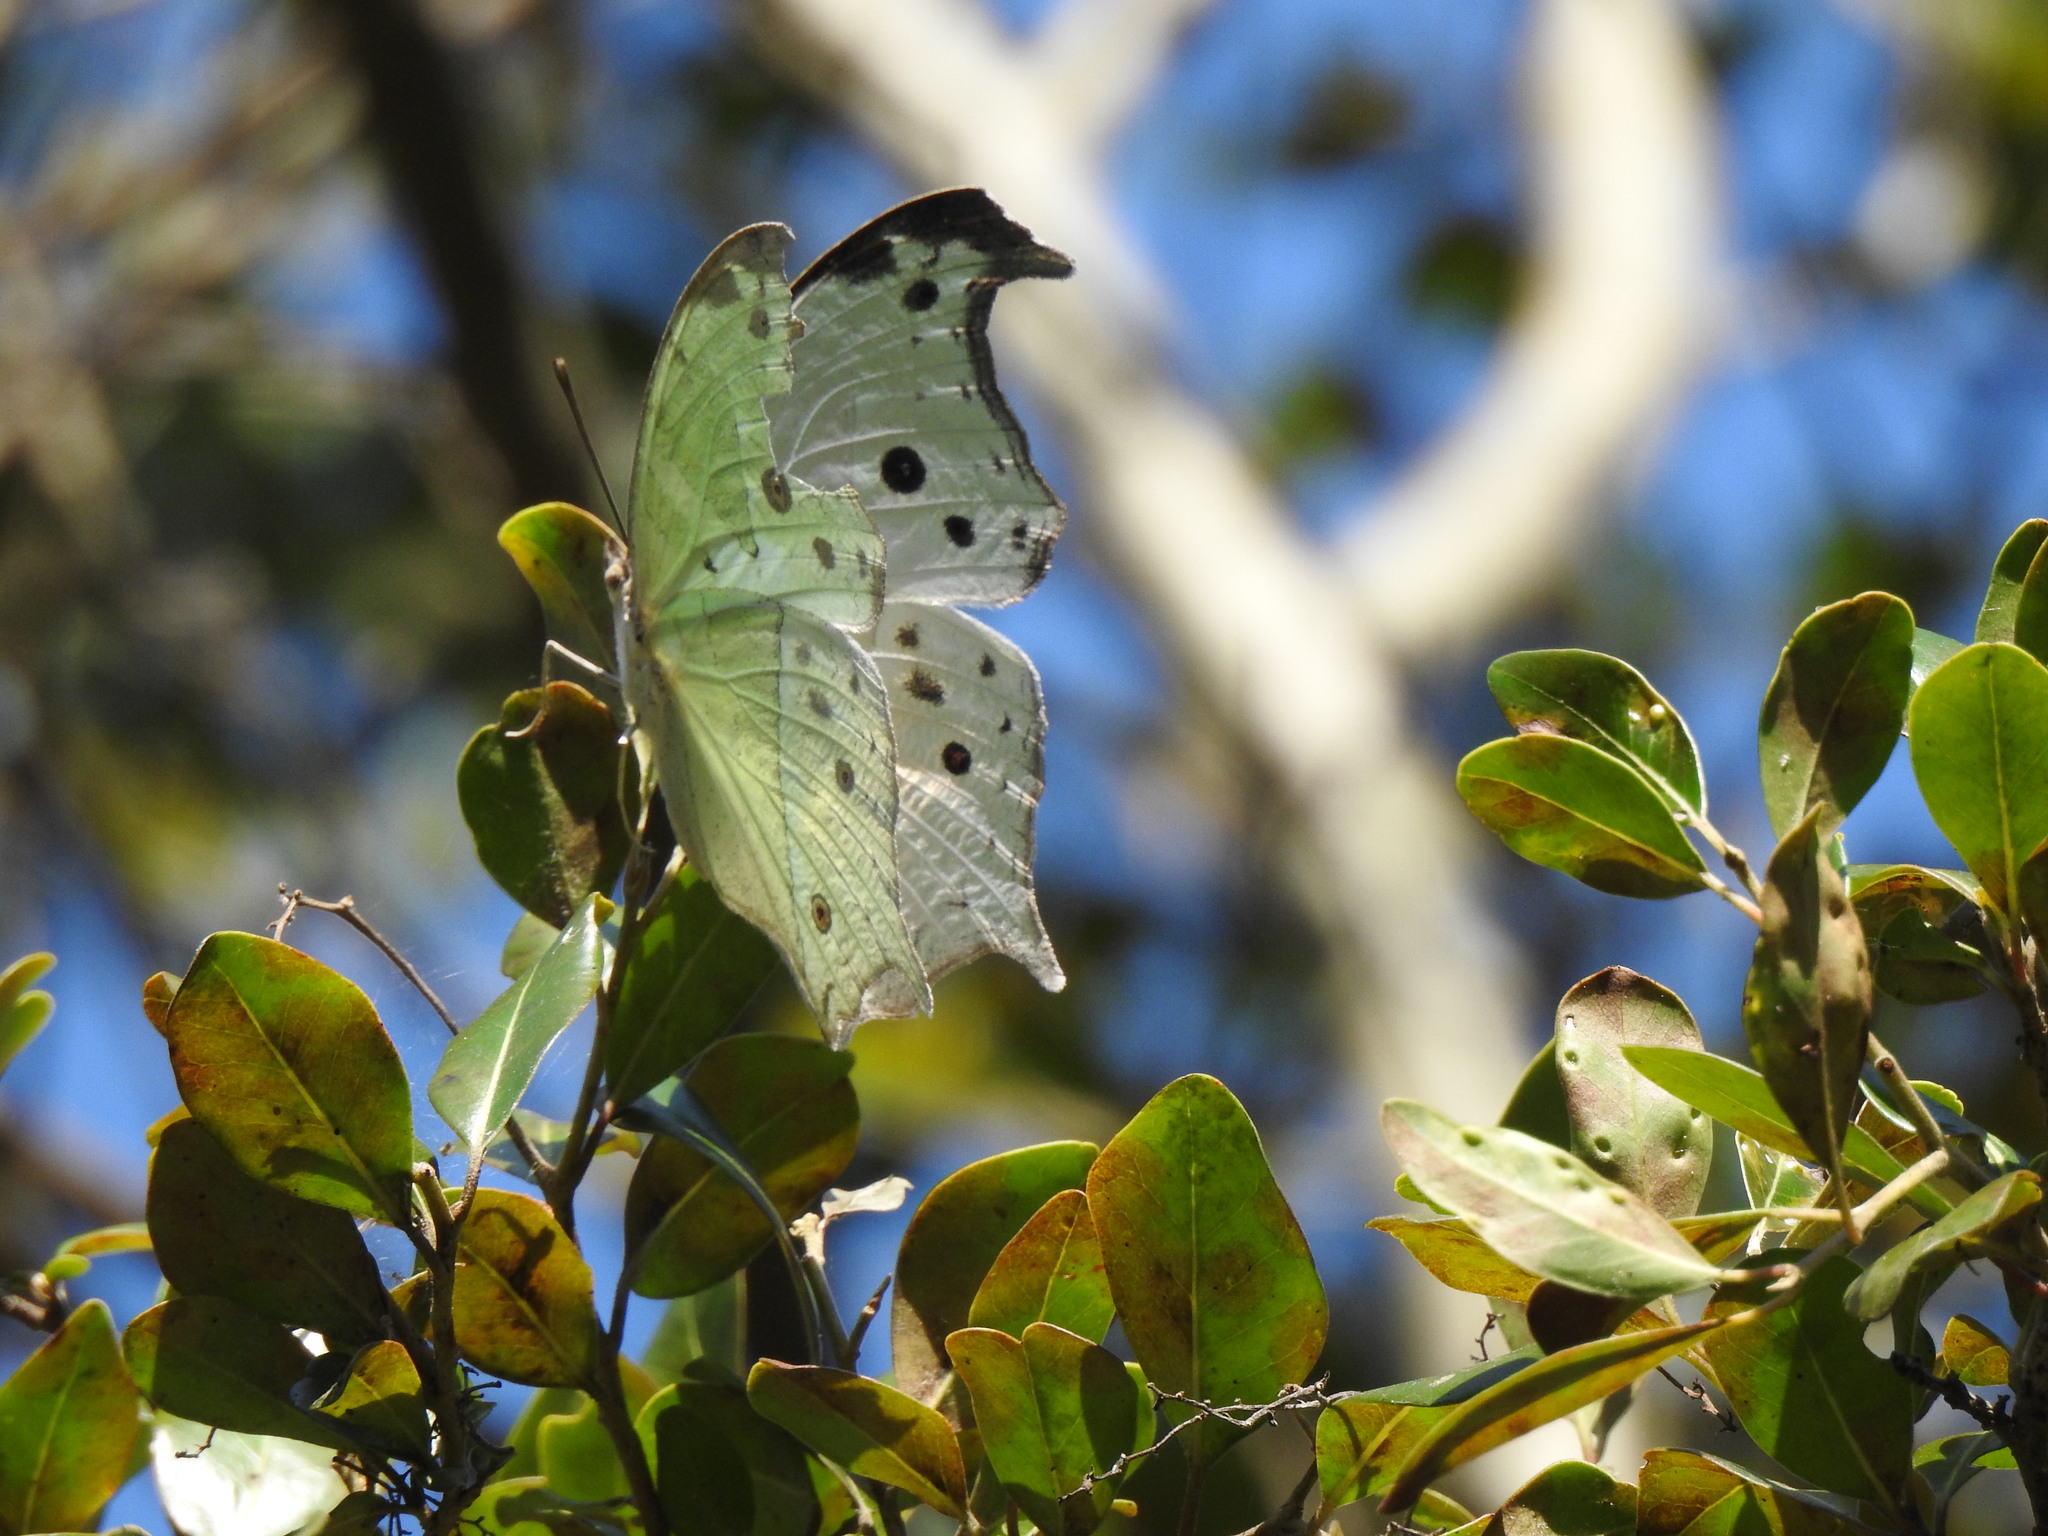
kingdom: Animalia
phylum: Arthropoda
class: Insecta
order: Lepidoptera
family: Nymphalidae
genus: Salamis
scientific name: Salamis Protogoniomorpha parhassus
